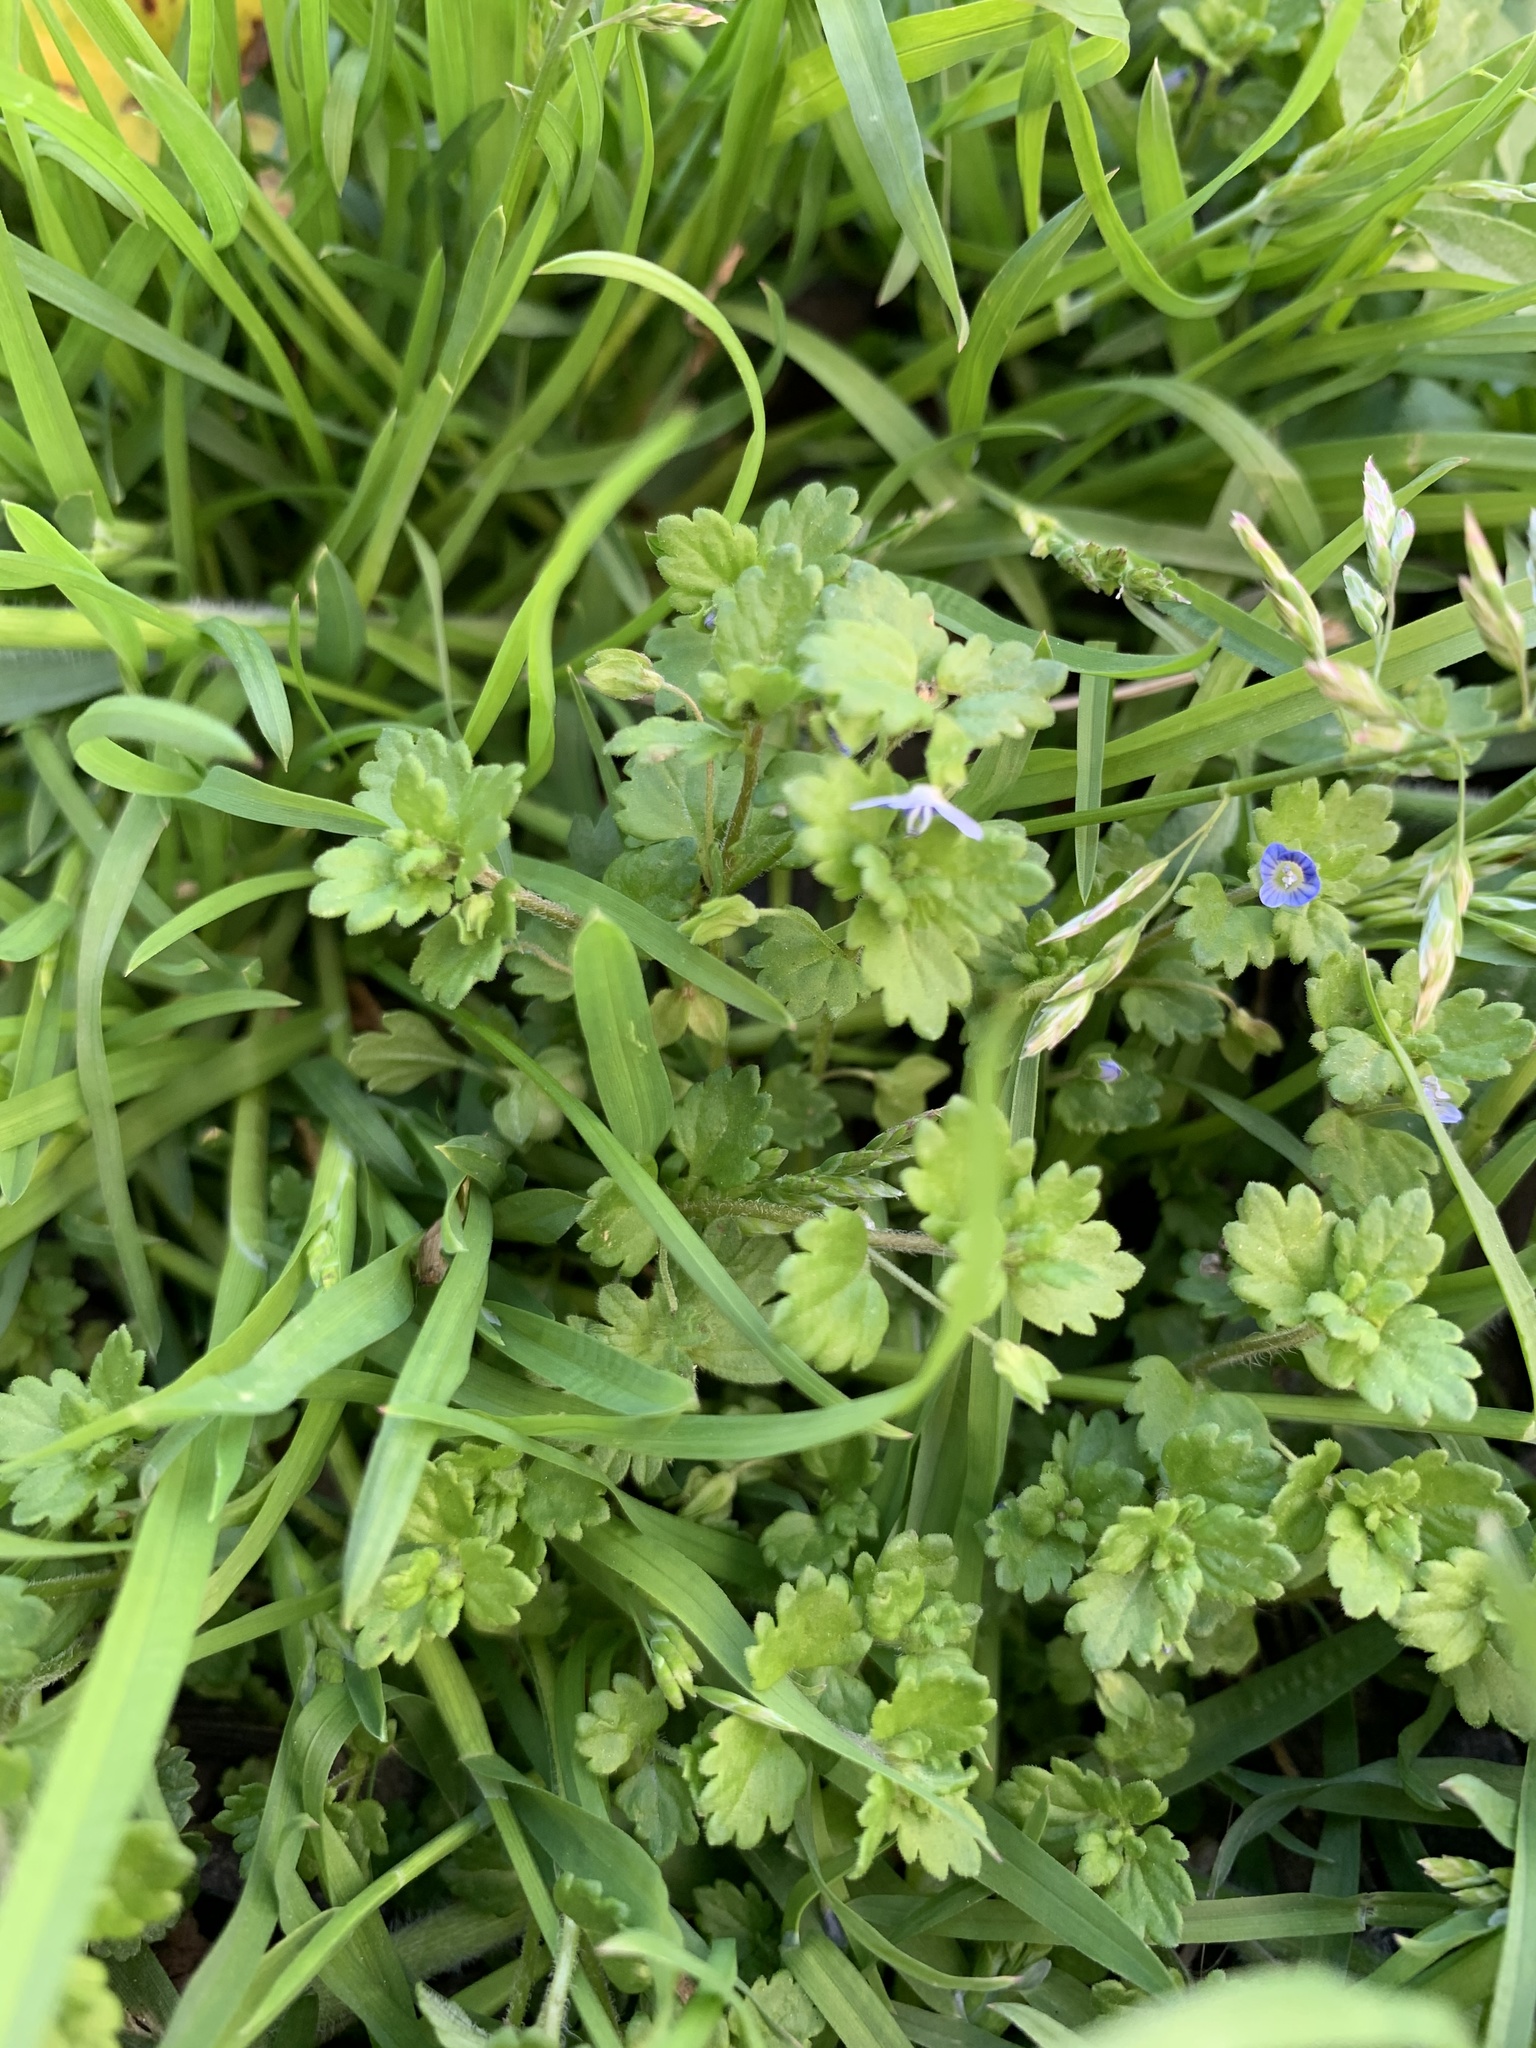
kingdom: Plantae
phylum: Tracheophyta
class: Magnoliopsida
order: Lamiales
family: Plantaginaceae
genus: Veronica
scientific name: Veronica persica
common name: Common field-speedwell
